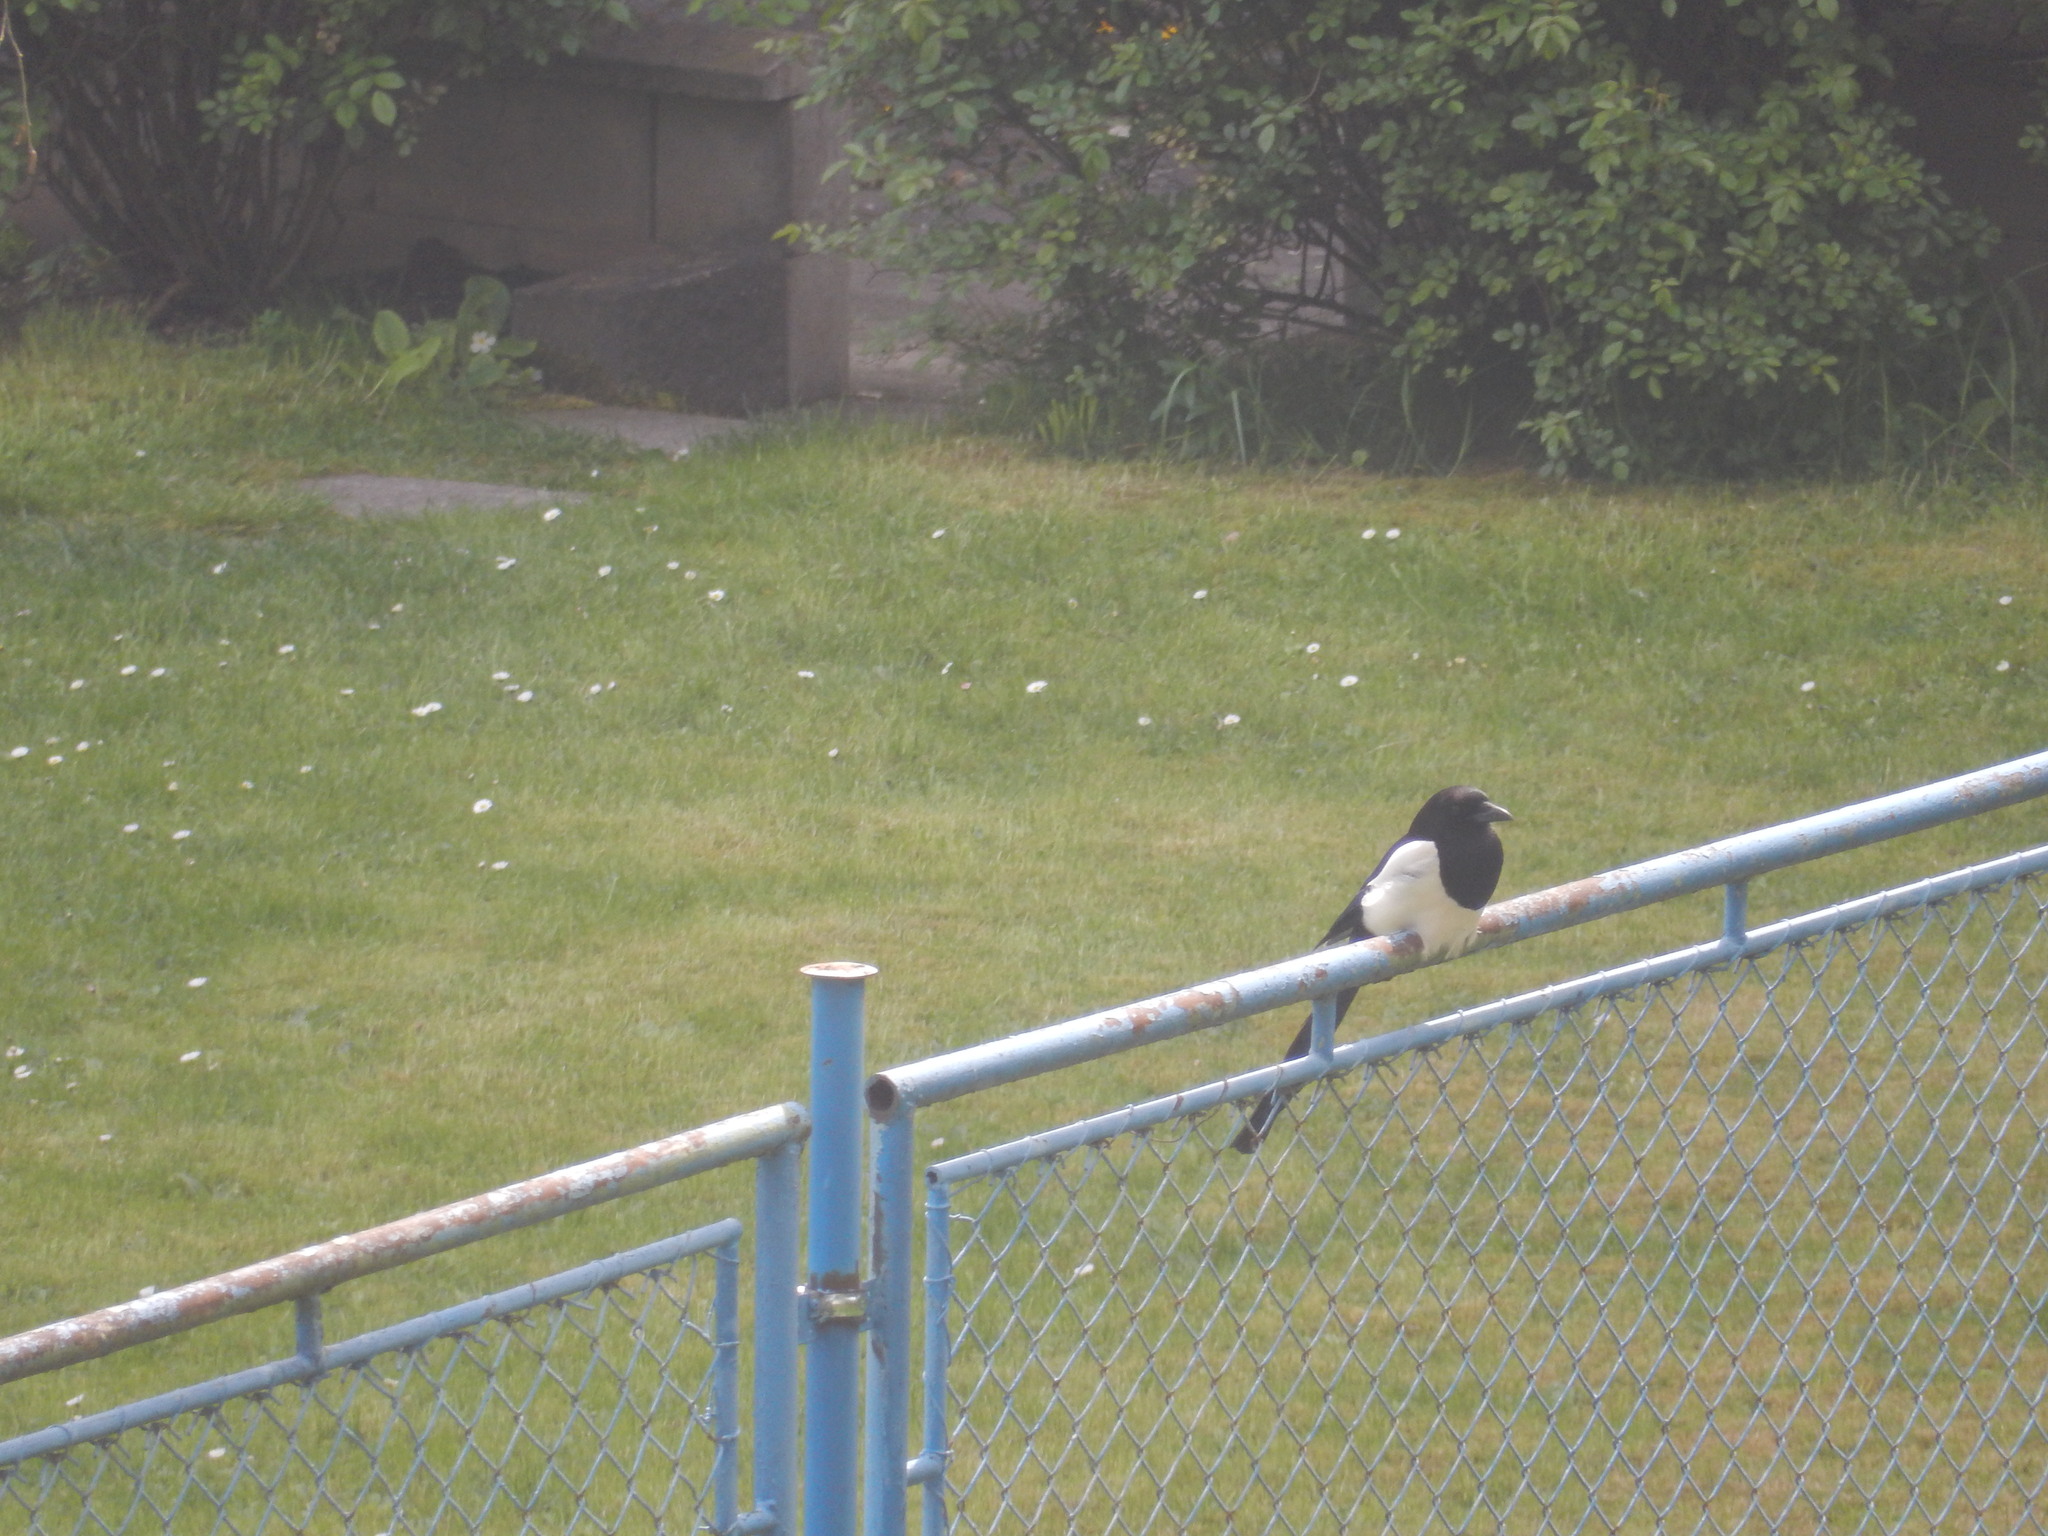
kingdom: Animalia
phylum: Chordata
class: Aves
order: Passeriformes
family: Corvidae
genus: Pica
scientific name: Pica pica
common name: Eurasian magpie
